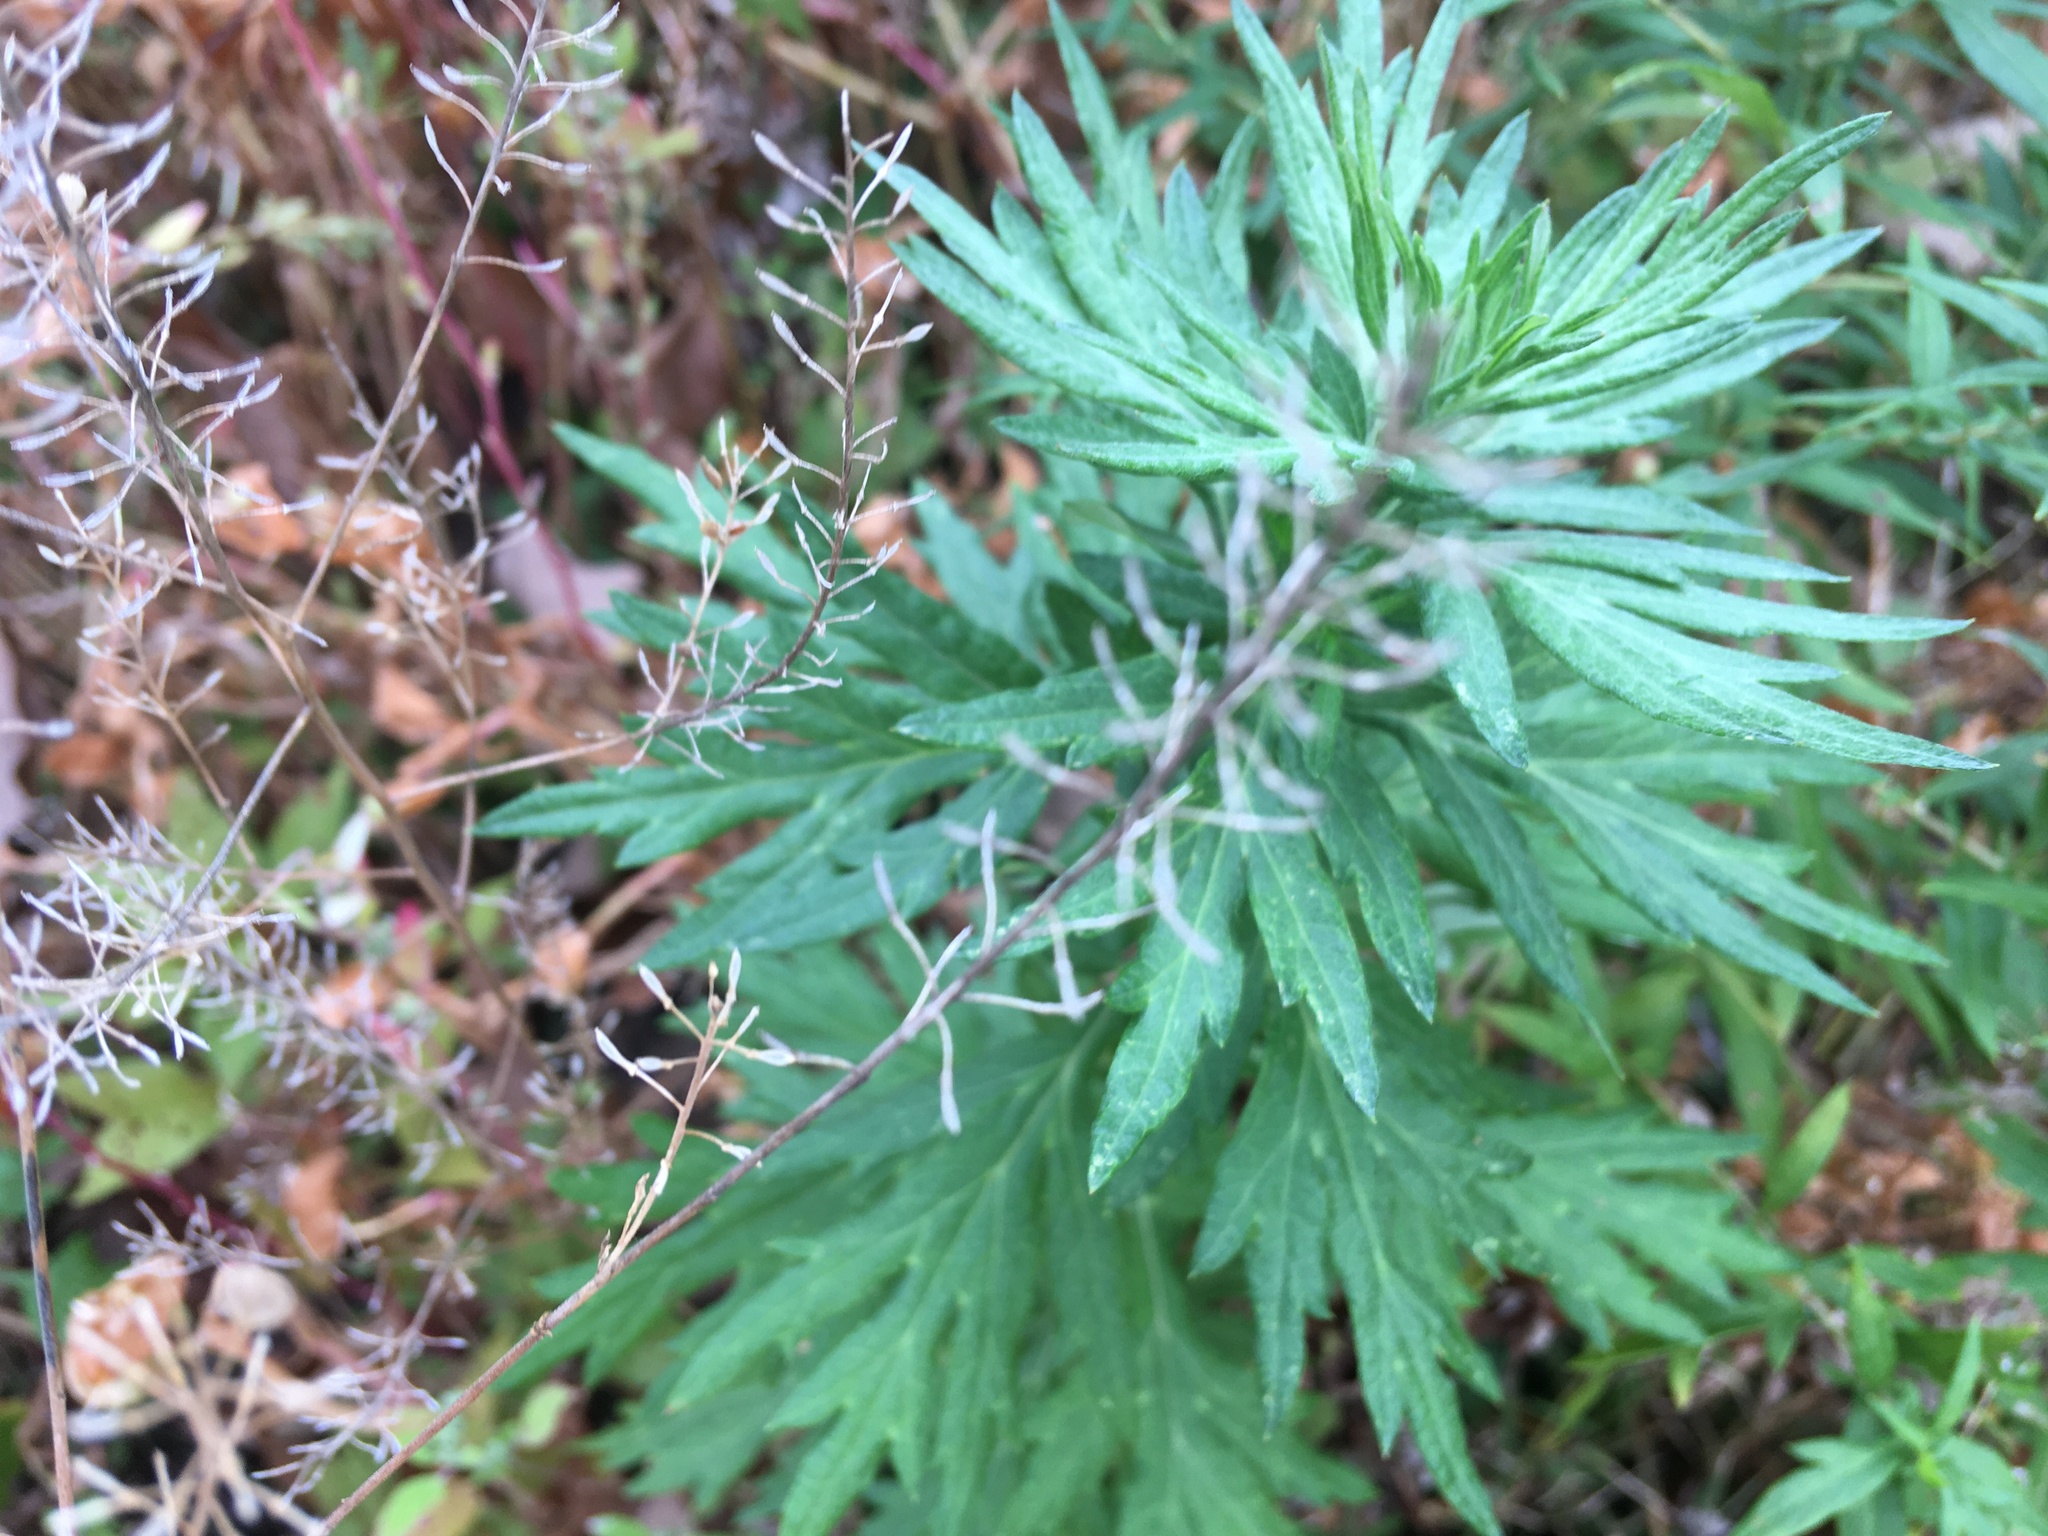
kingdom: Plantae
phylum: Tracheophyta
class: Magnoliopsida
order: Asterales
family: Asteraceae
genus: Artemisia
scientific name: Artemisia vulgaris
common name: Mugwort
